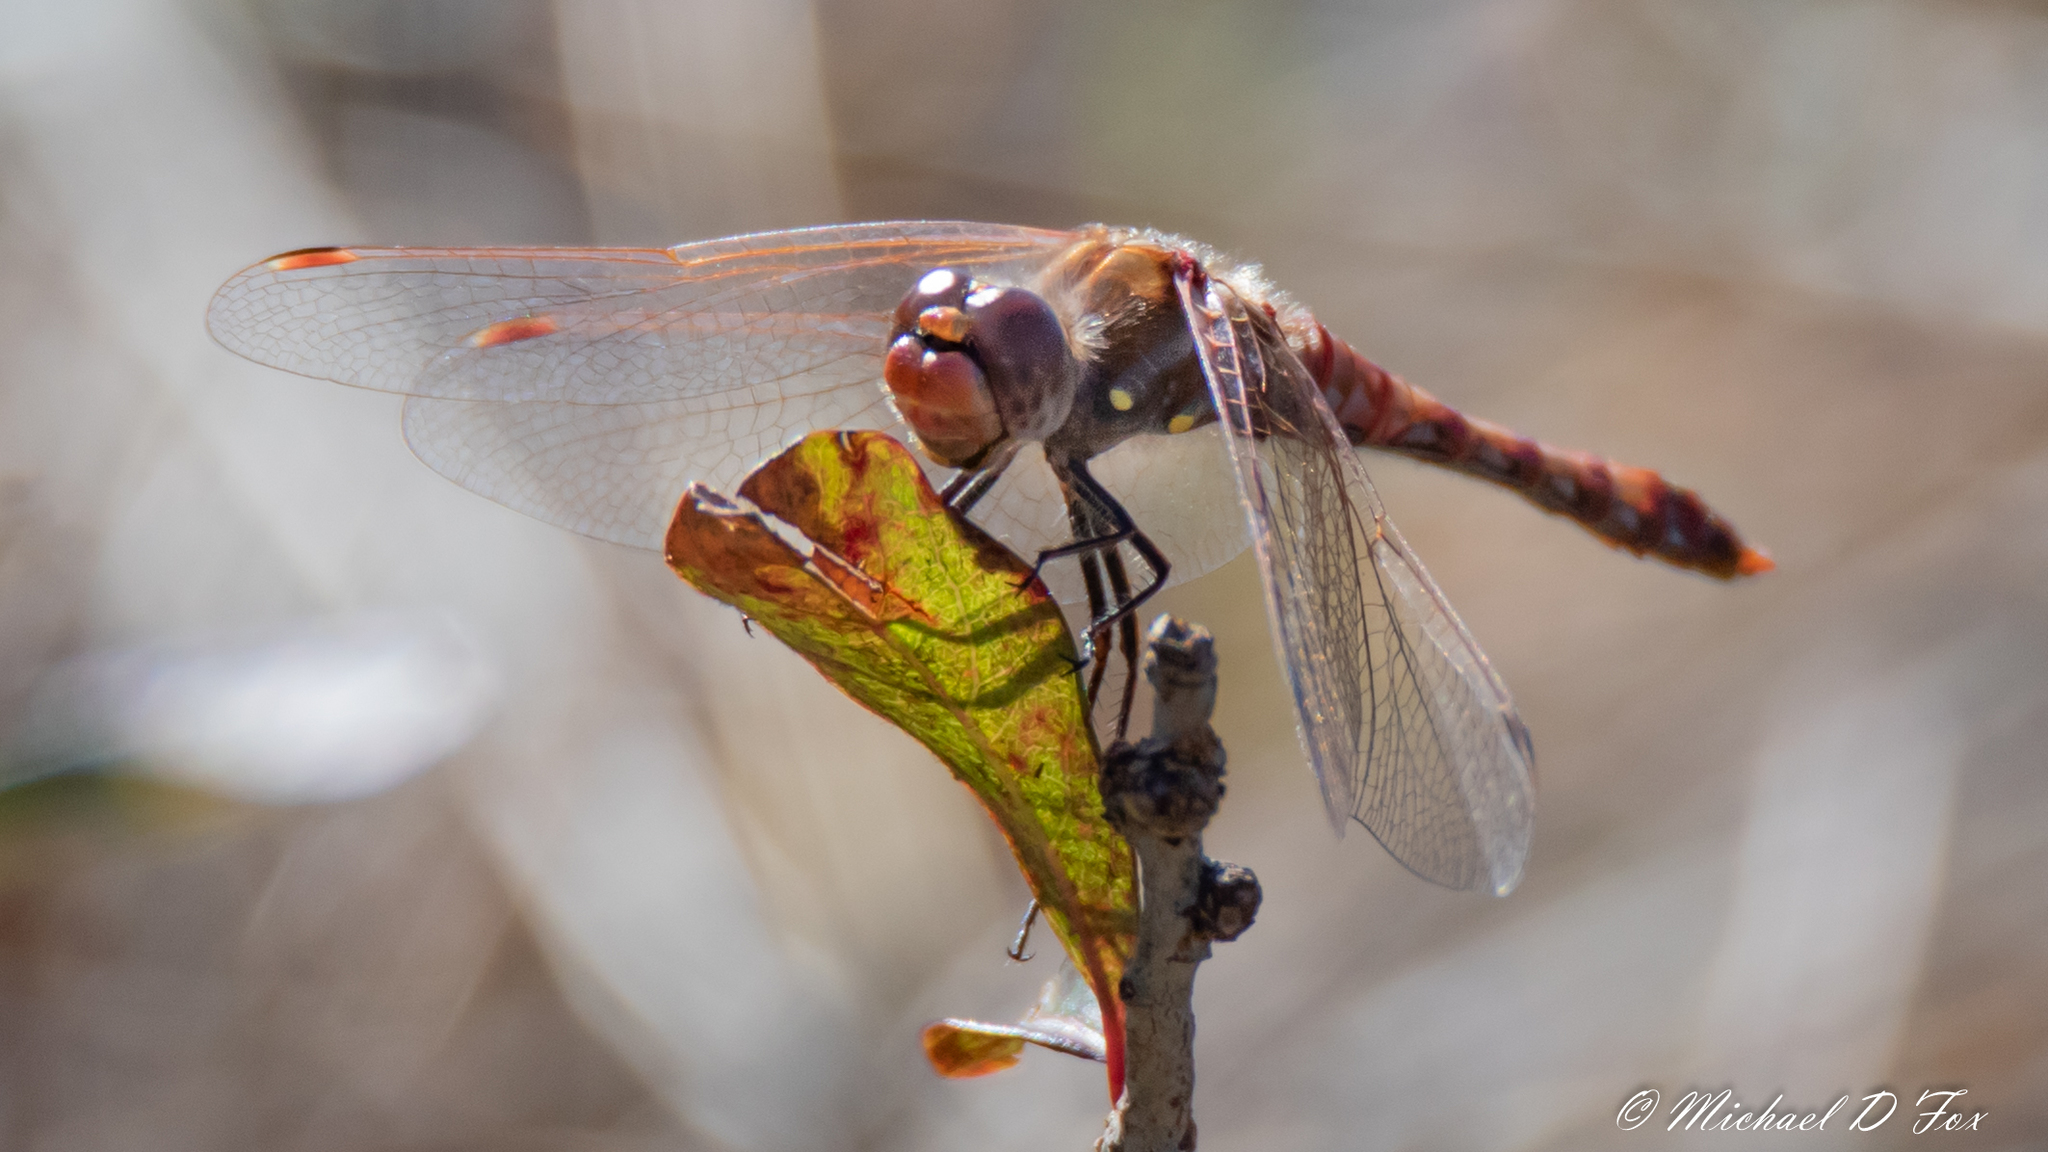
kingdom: Animalia
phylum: Arthropoda
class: Insecta
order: Odonata
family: Libellulidae
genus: Sympetrum
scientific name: Sympetrum corruptum
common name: Variegated meadowhawk
